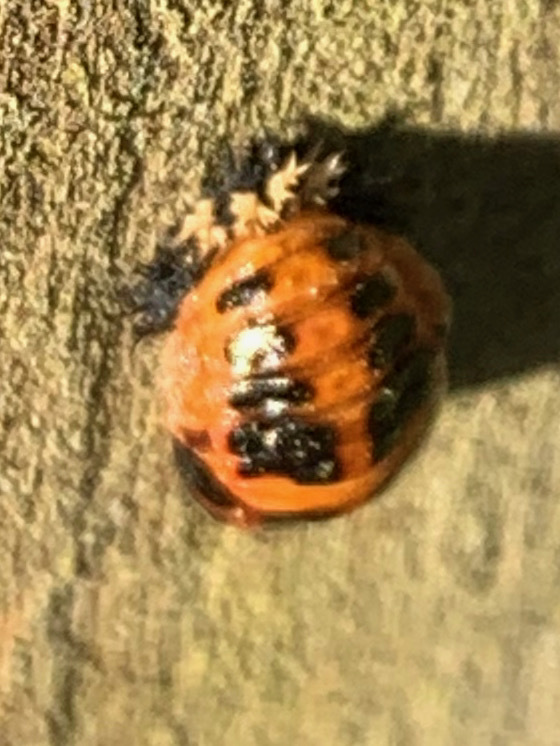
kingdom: Animalia
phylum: Arthropoda
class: Insecta
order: Coleoptera
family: Coccinellidae
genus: Harmonia
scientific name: Harmonia axyridis
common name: Harlequin ladybird
